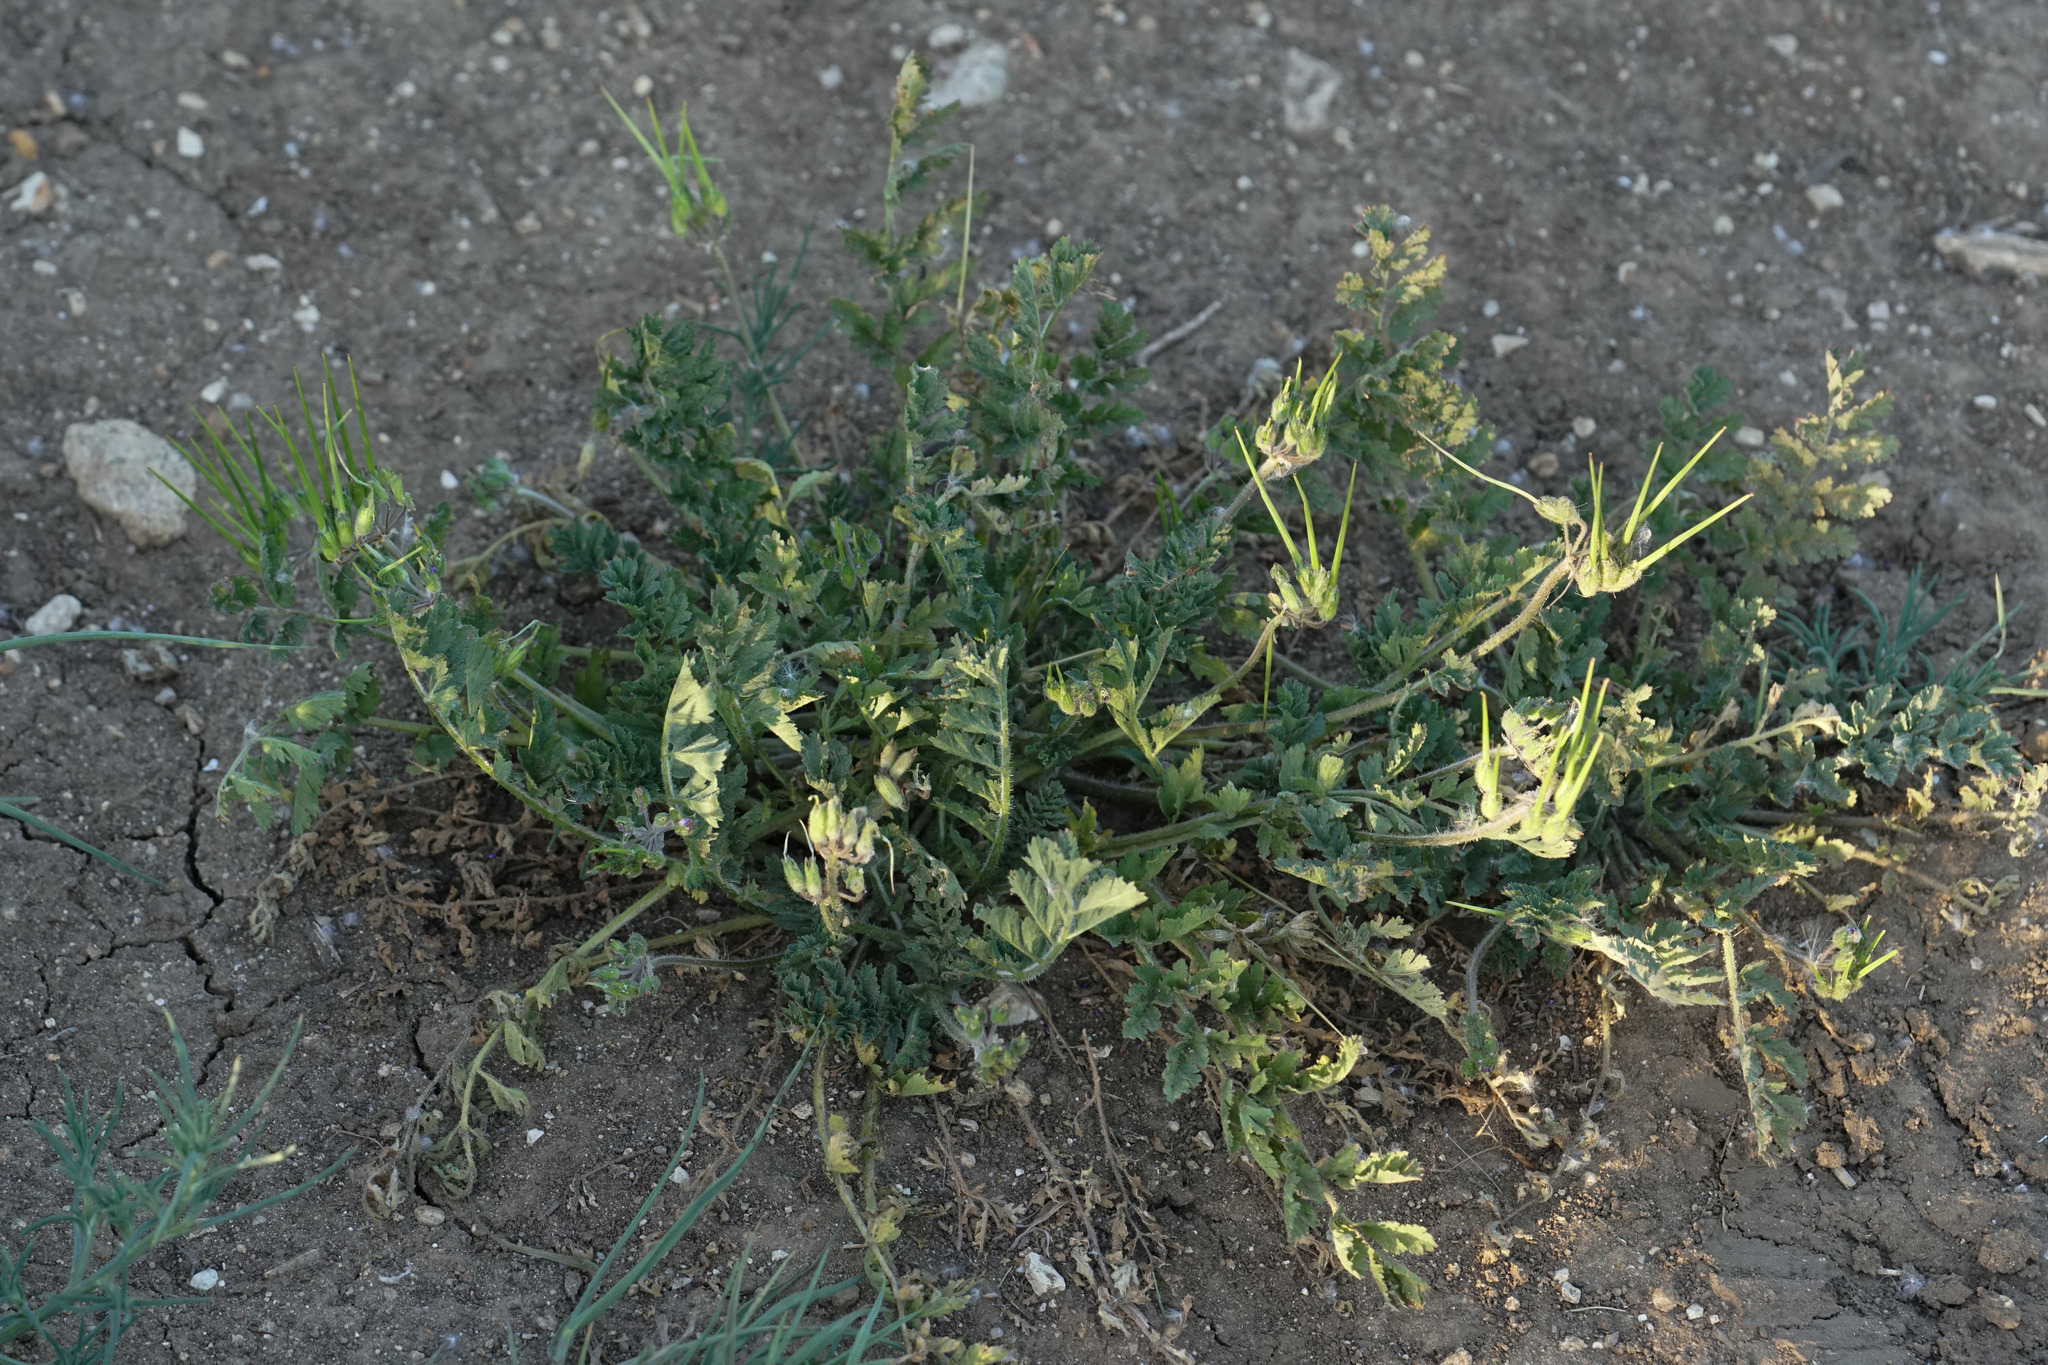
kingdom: Plantae
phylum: Tracheophyta
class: Magnoliopsida
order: Geraniales
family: Geraniaceae
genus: Erodium
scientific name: Erodium cicutarium
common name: Common stork's-bill
